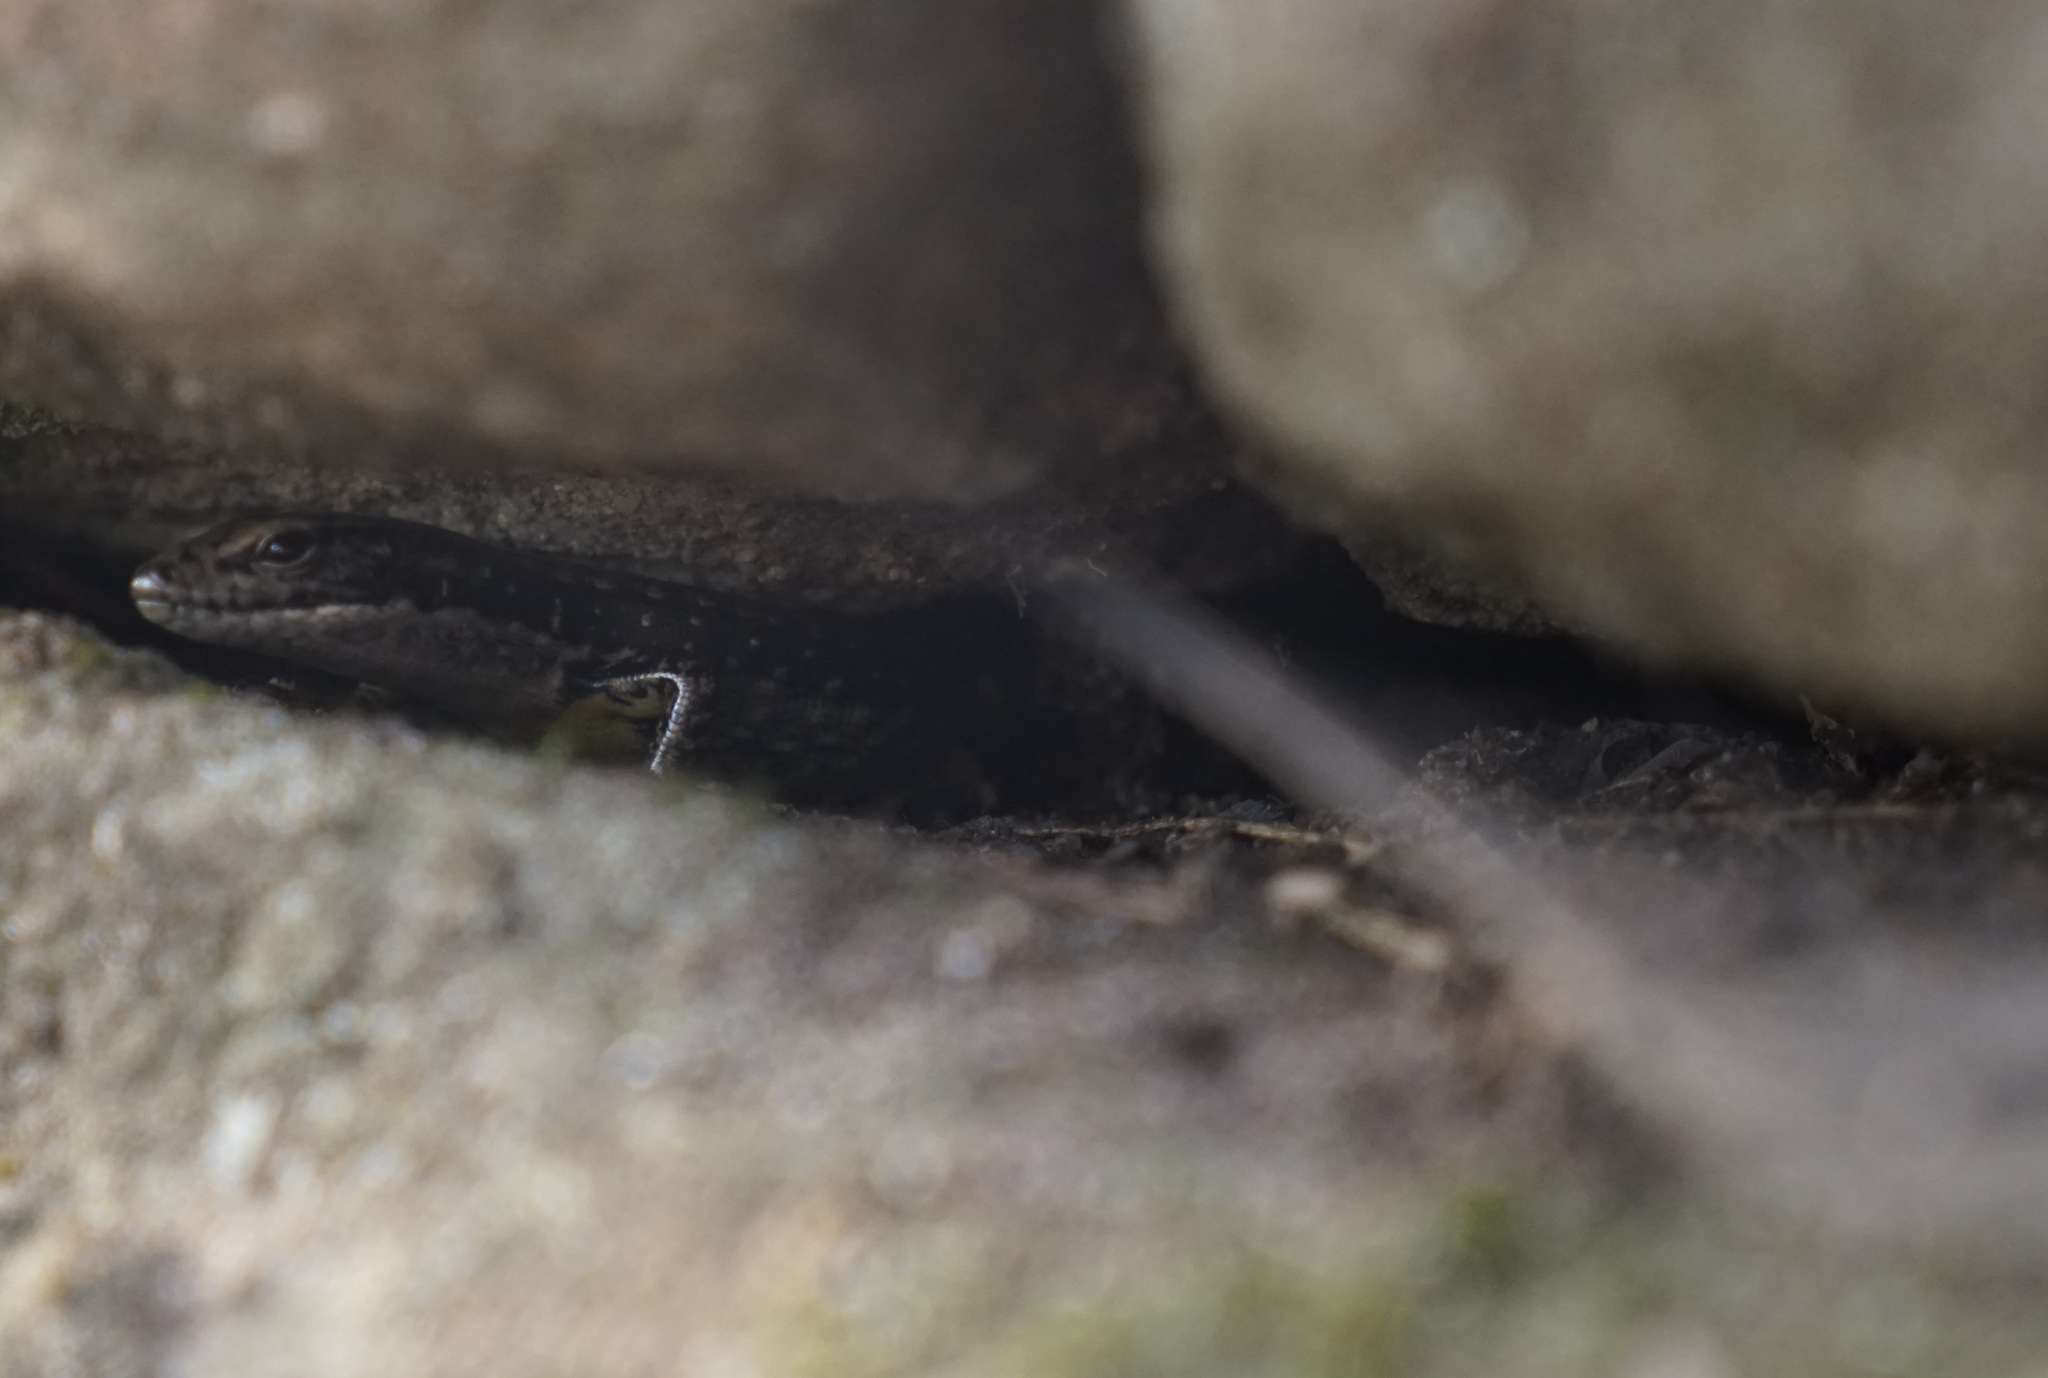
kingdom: Animalia
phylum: Chordata
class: Squamata
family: Scincidae
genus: Eulamprus
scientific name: Eulamprus heatwolei
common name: Warm-temperate water-skink
